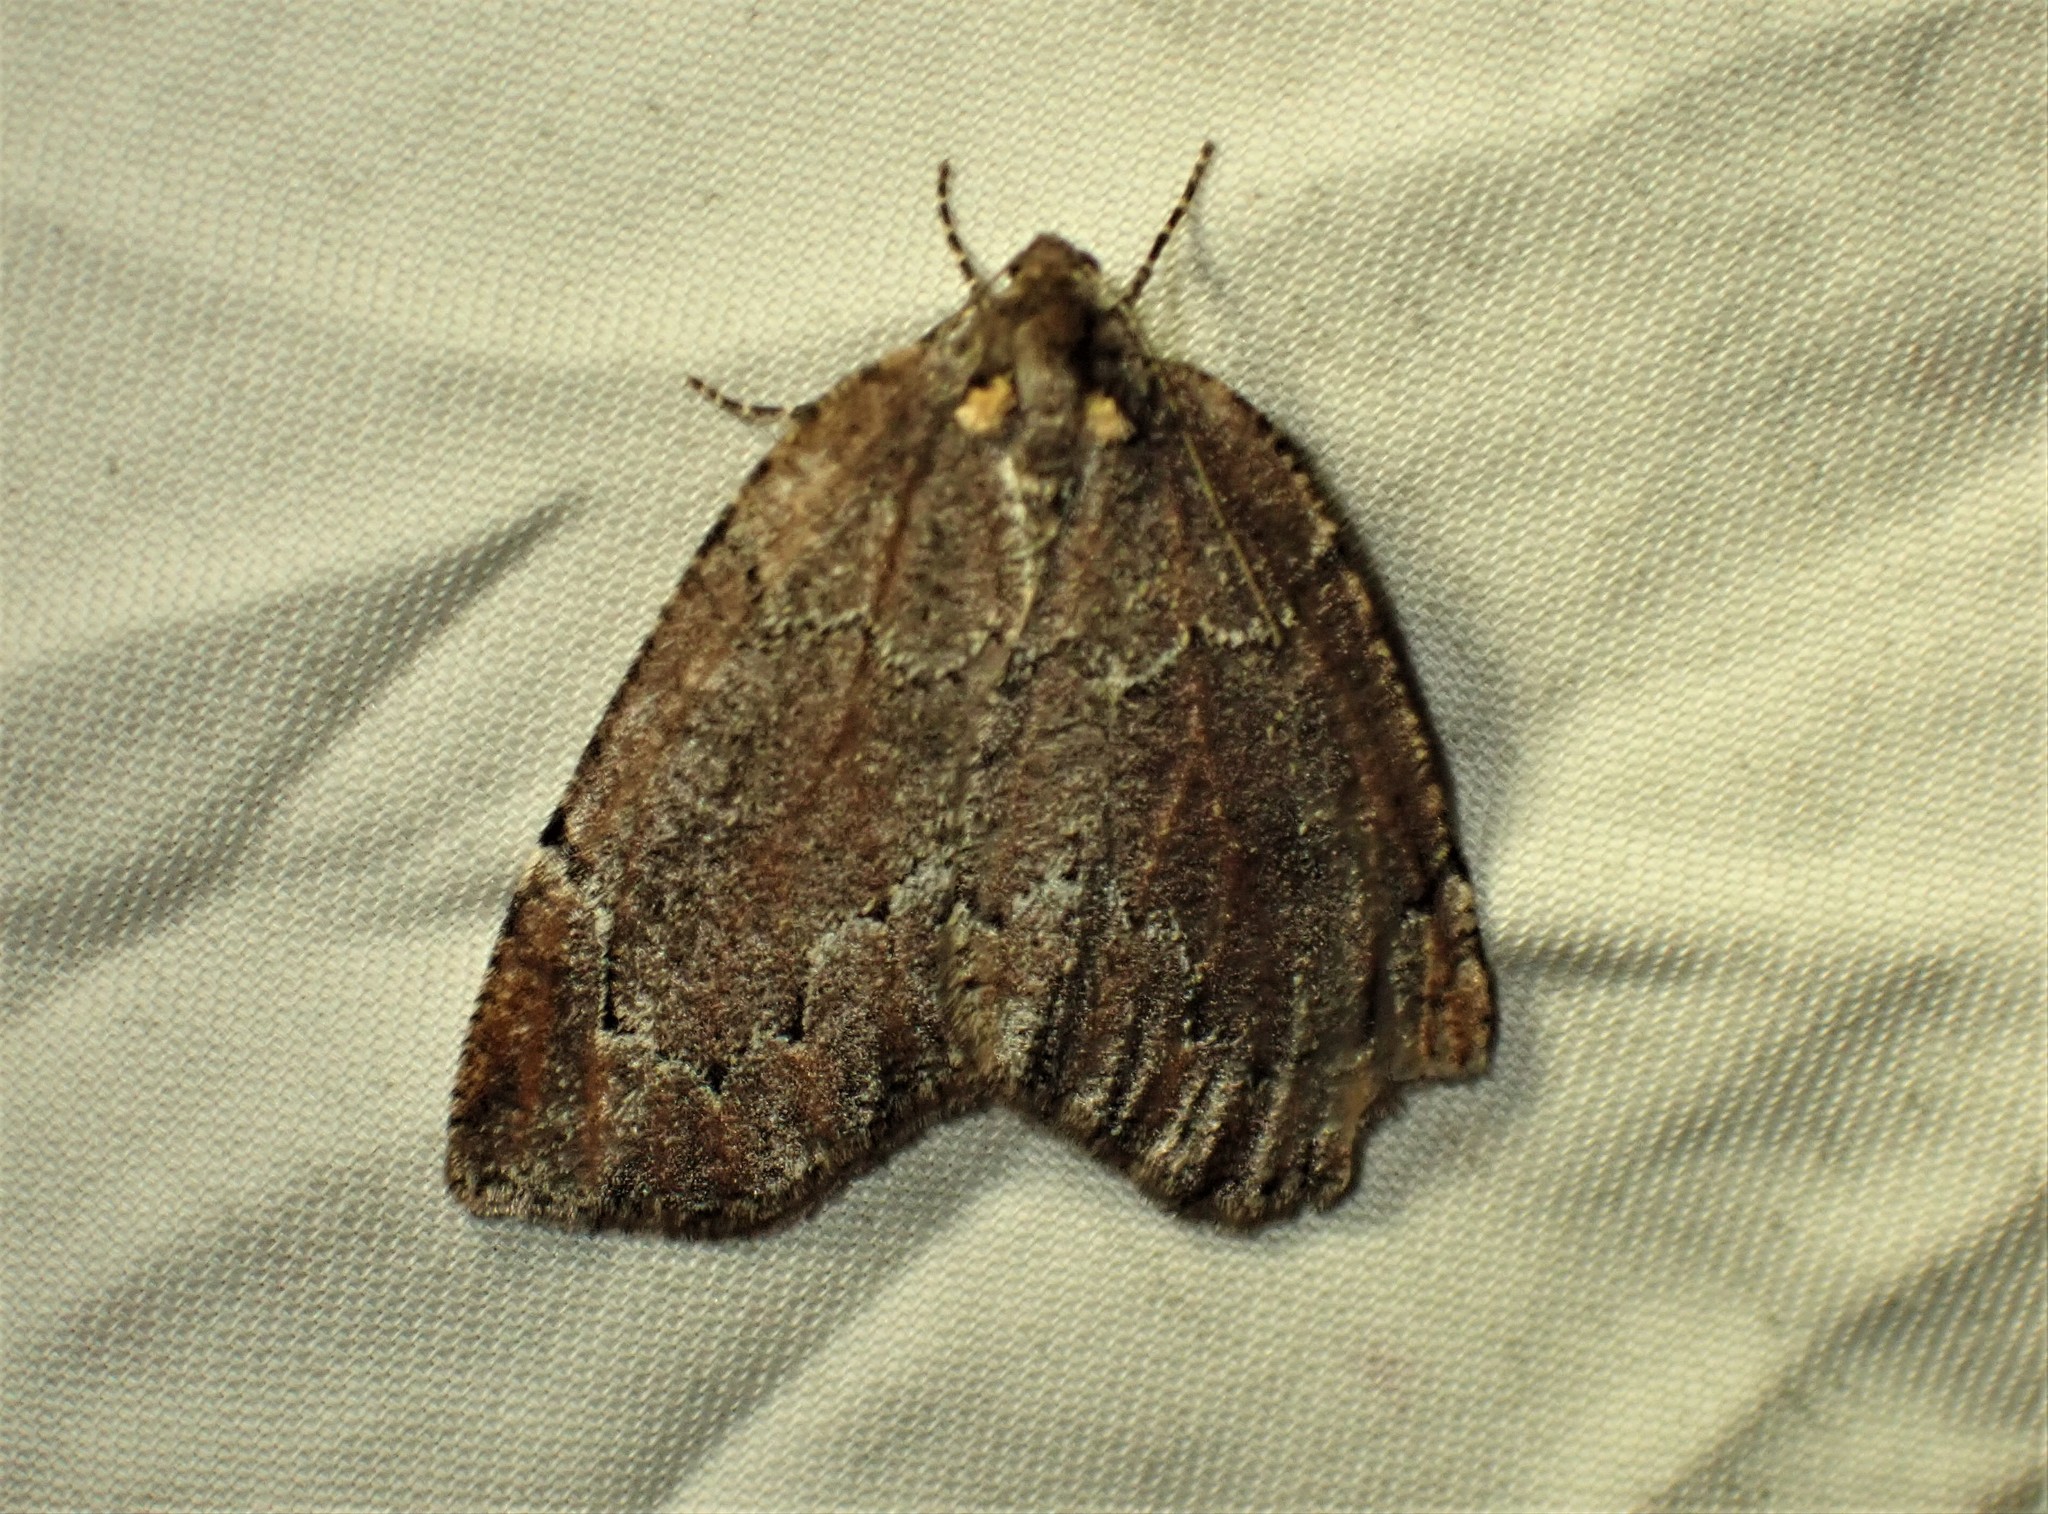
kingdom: Animalia
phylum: Arthropoda
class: Insecta
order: Lepidoptera
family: Geometridae
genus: Spodolepis
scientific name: Spodolepis substriataria
